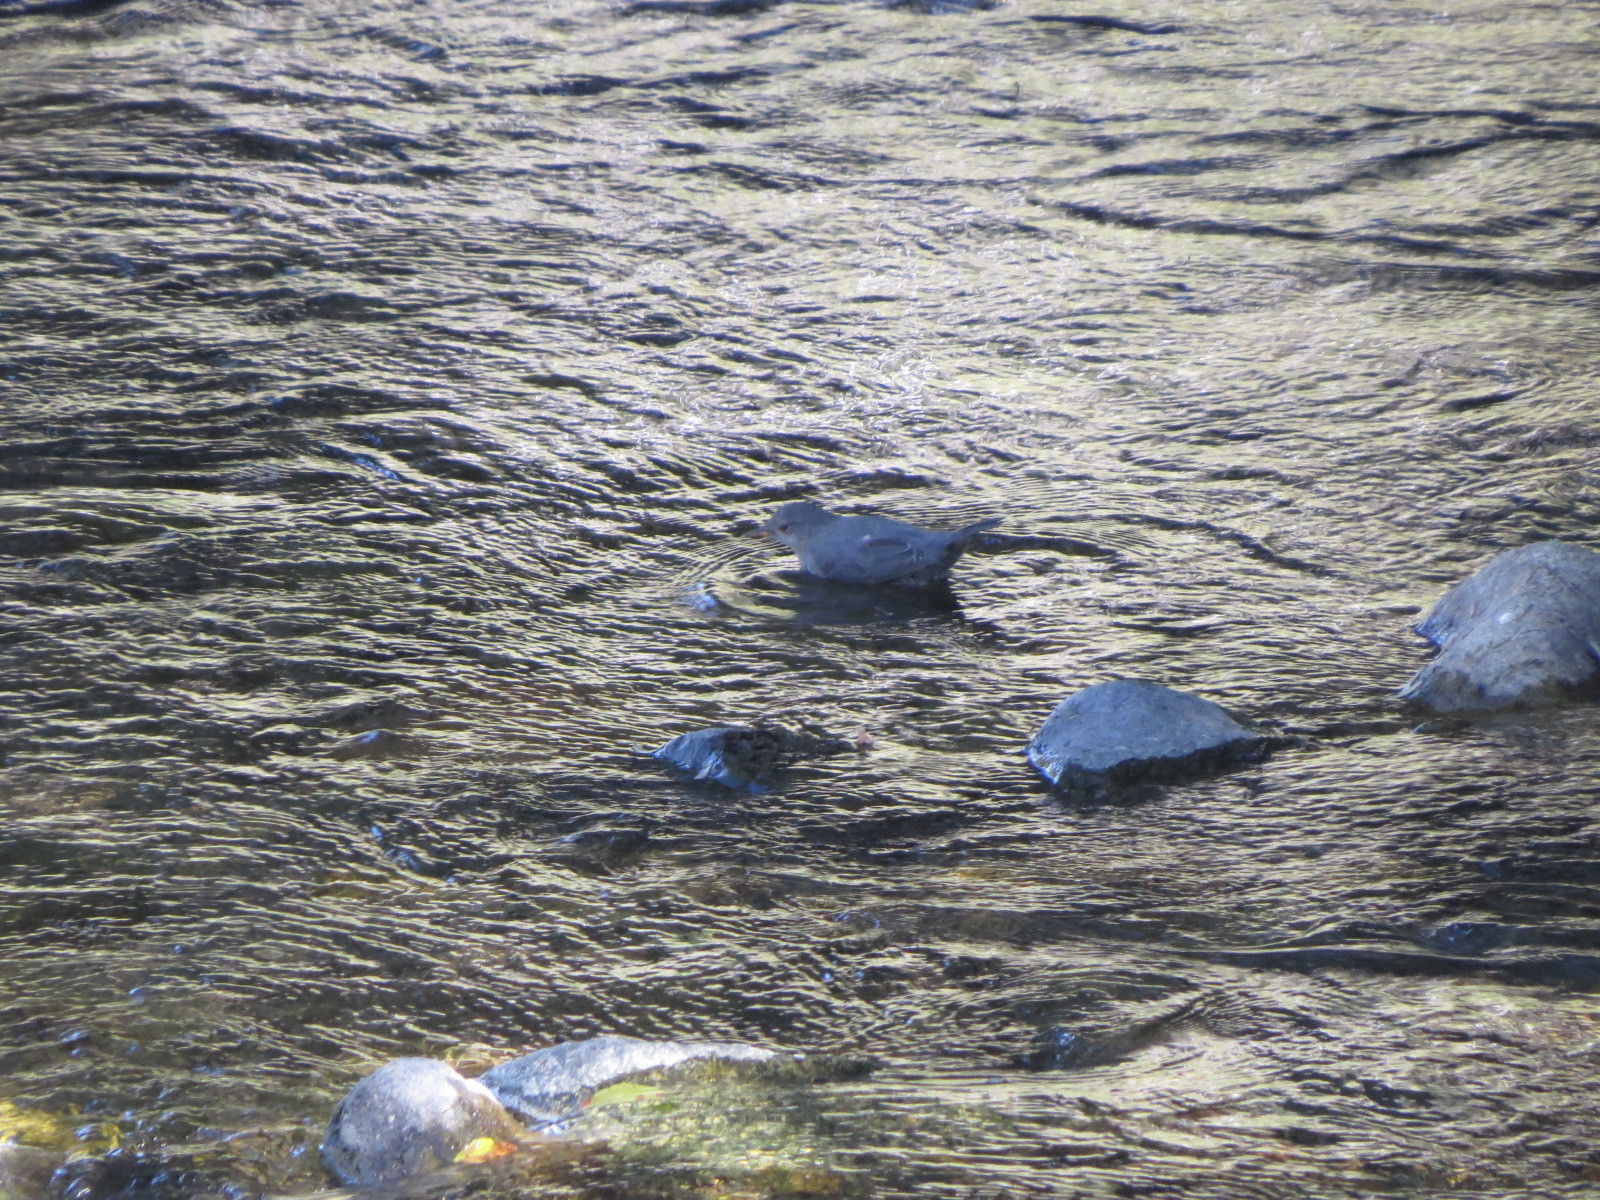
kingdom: Animalia
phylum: Chordata
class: Aves
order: Passeriformes
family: Cinclidae
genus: Cinclus
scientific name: Cinclus mexicanus
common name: American dipper
